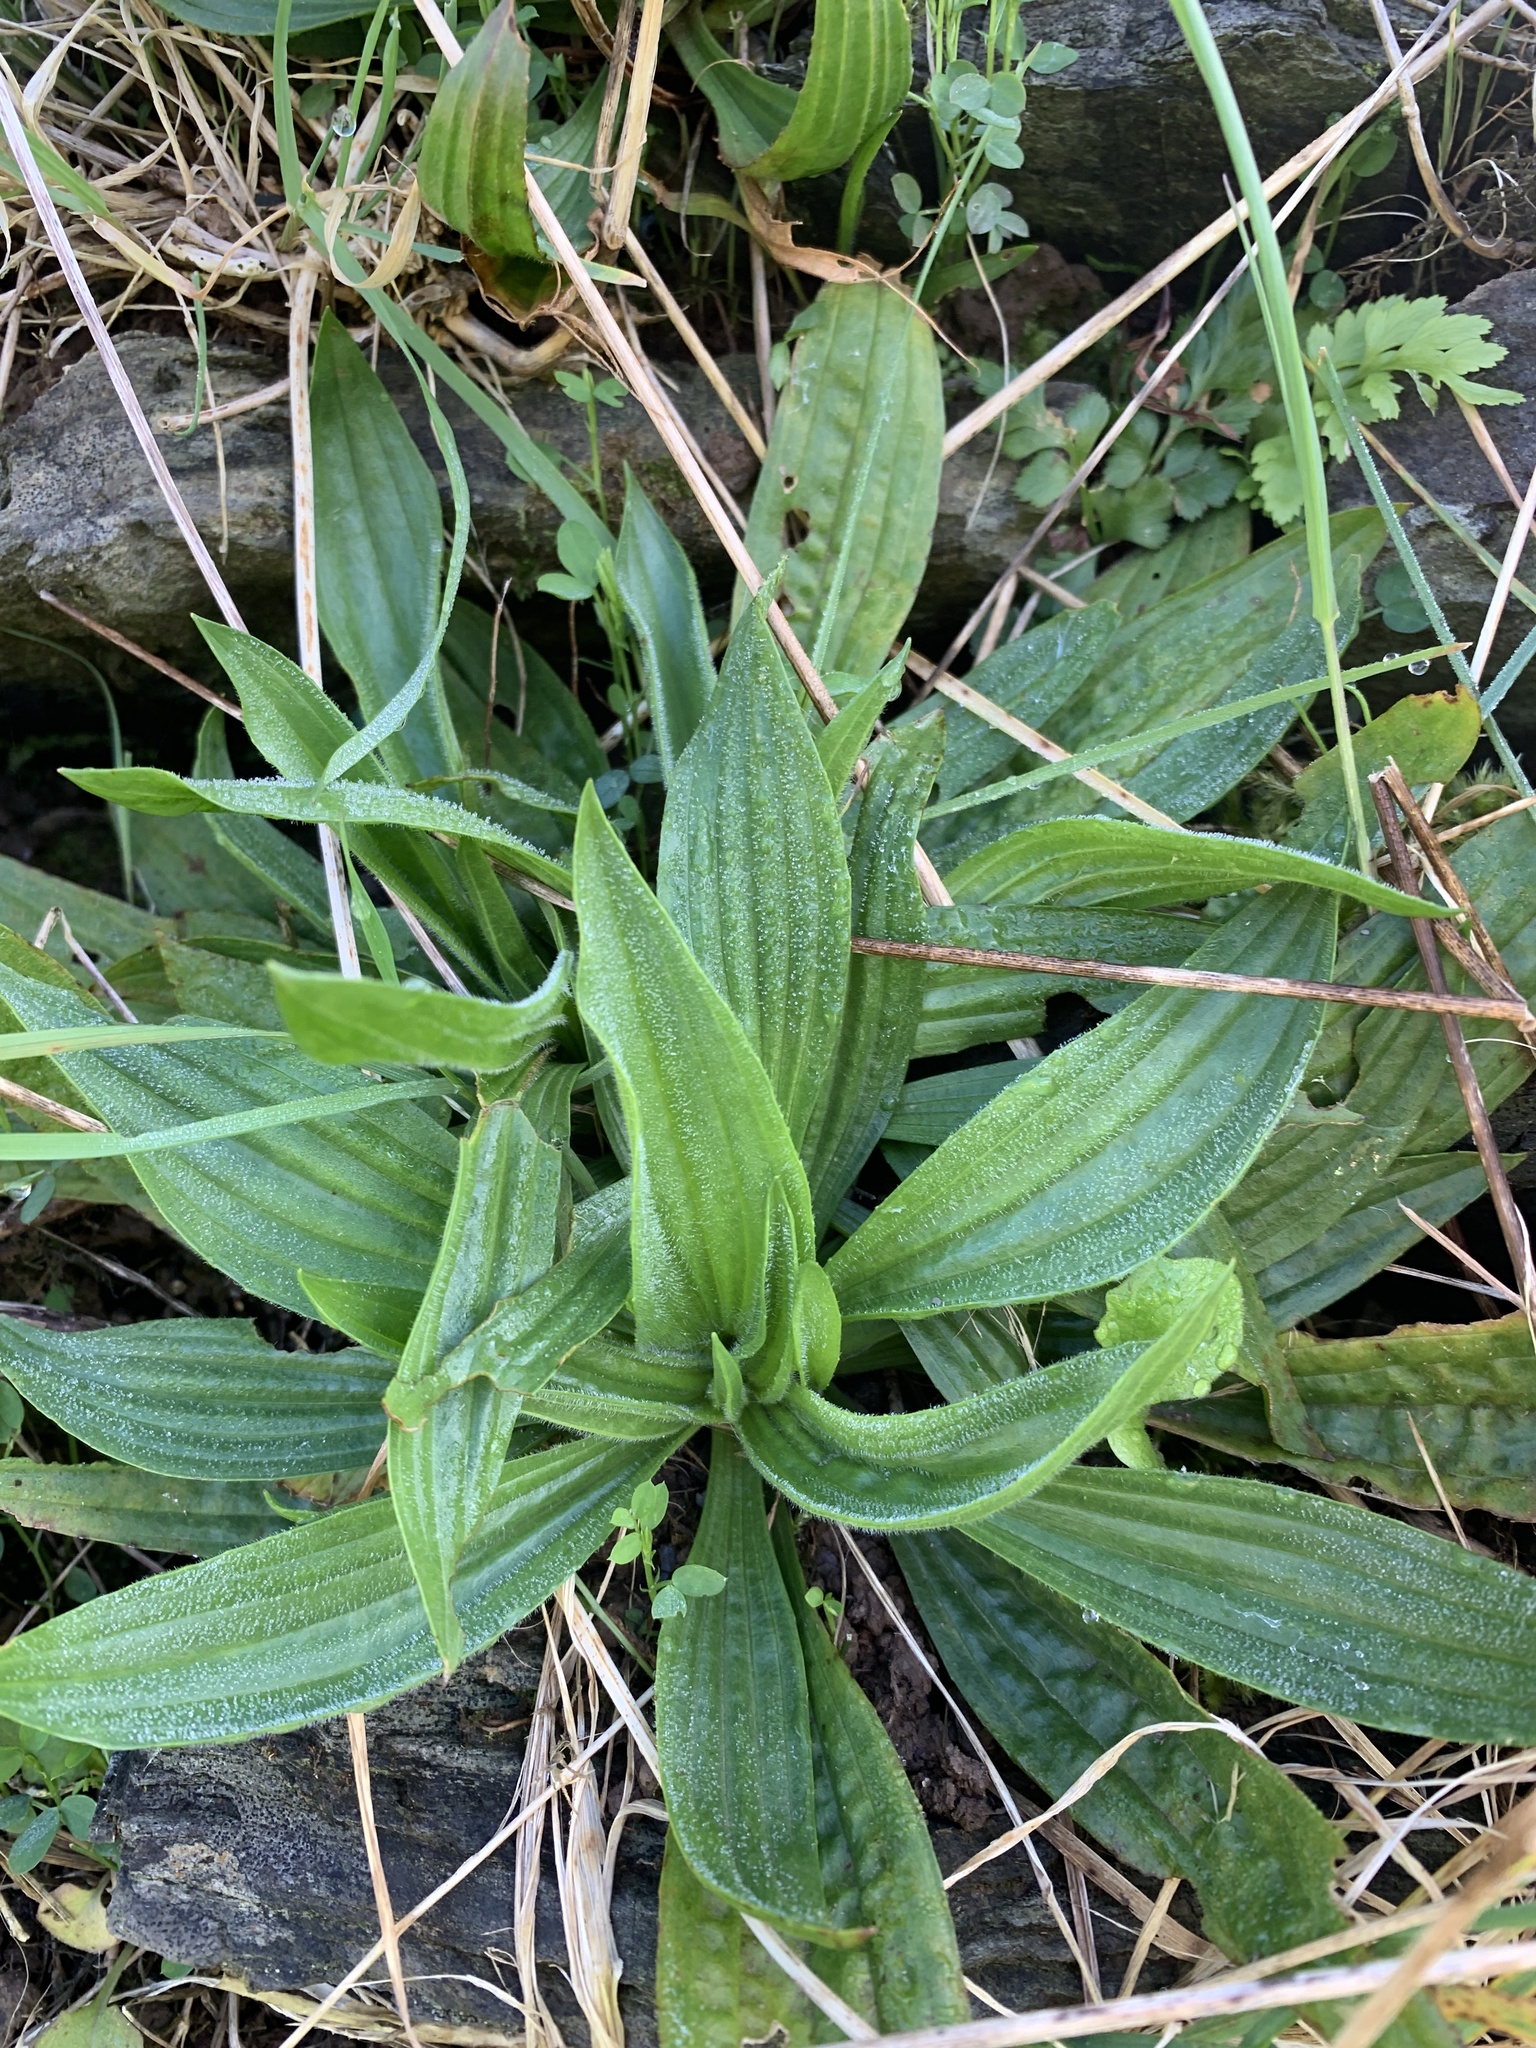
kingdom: Plantae
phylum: Tracheophyta
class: Magnoliopsida
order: Lamiales
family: Plantaginaceae
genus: Plantago
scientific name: Plantago lanceolata
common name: Ribwort plantain
